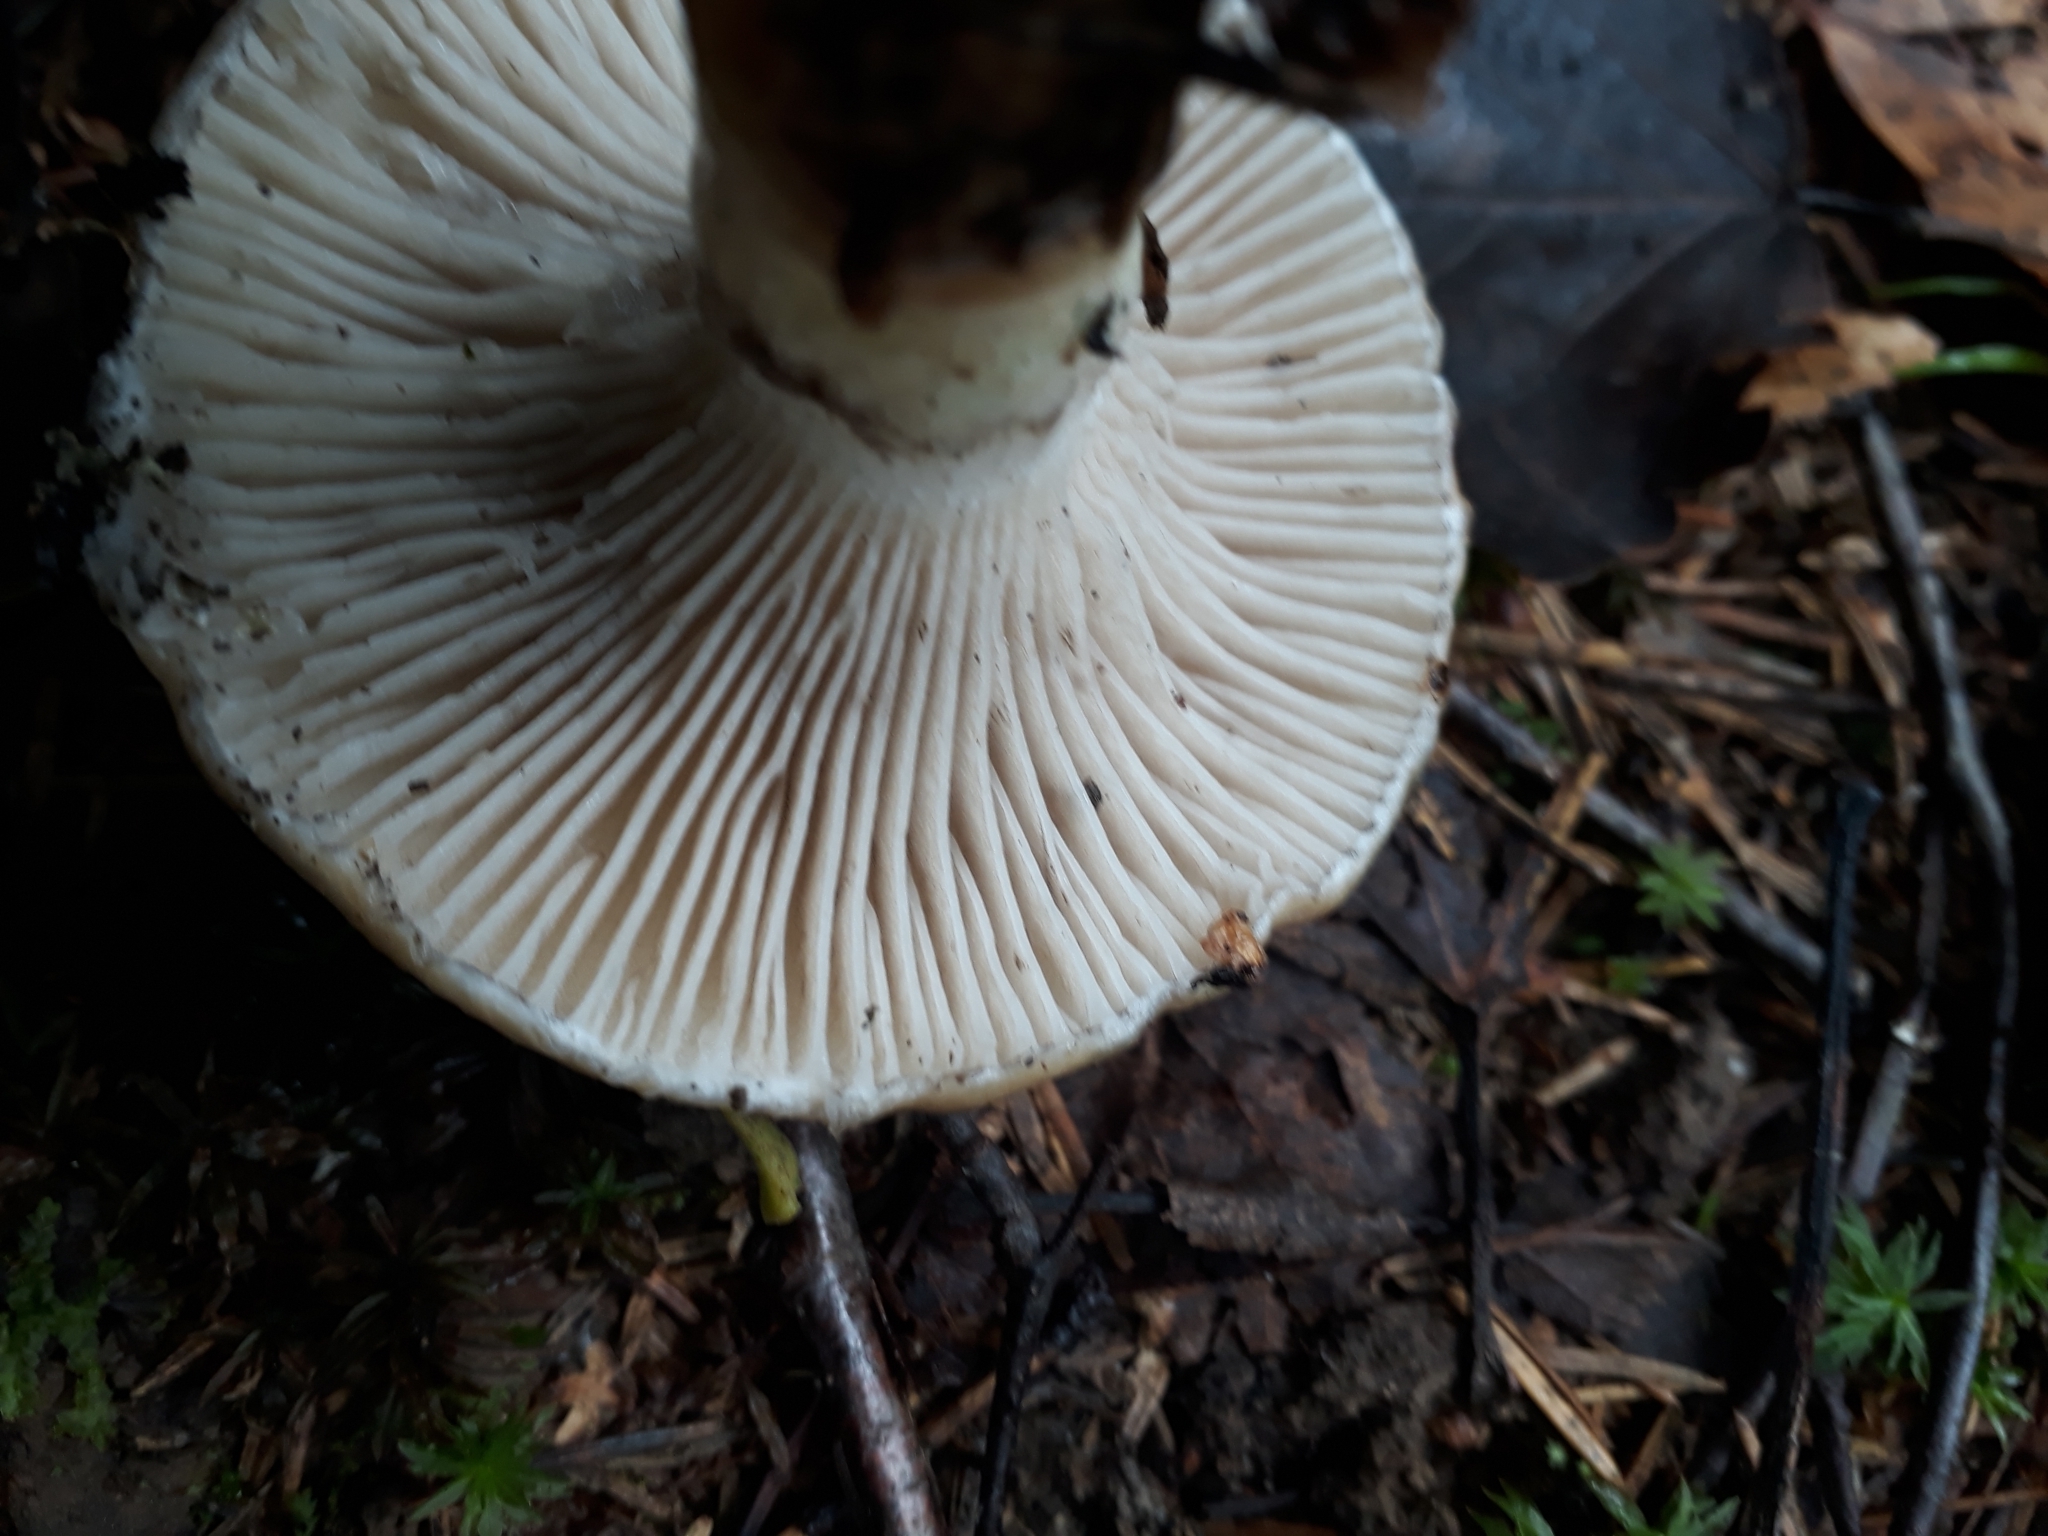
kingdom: Fungi
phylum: Basidiomycota
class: Agaricomycetes
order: Boletales
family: Gomphidiaceae
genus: Gomphidius
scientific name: Gomphidius glutinosus
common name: Slimy spike
